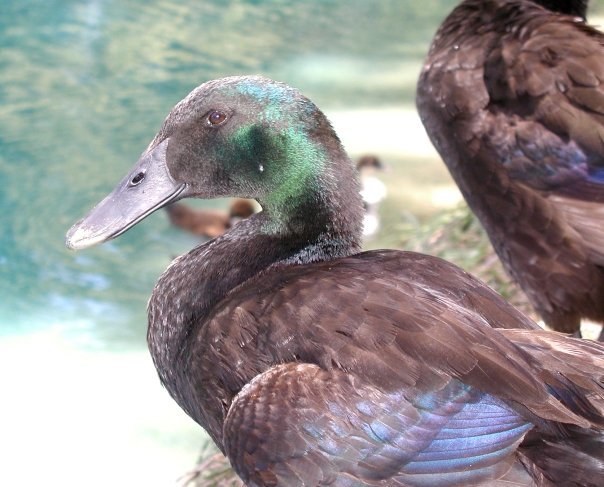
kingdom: Animalia
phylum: Chordata
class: Aves
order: Anseriformes
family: Anatidae
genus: Anas
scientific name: Anas platyrhynchos
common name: Mallard
